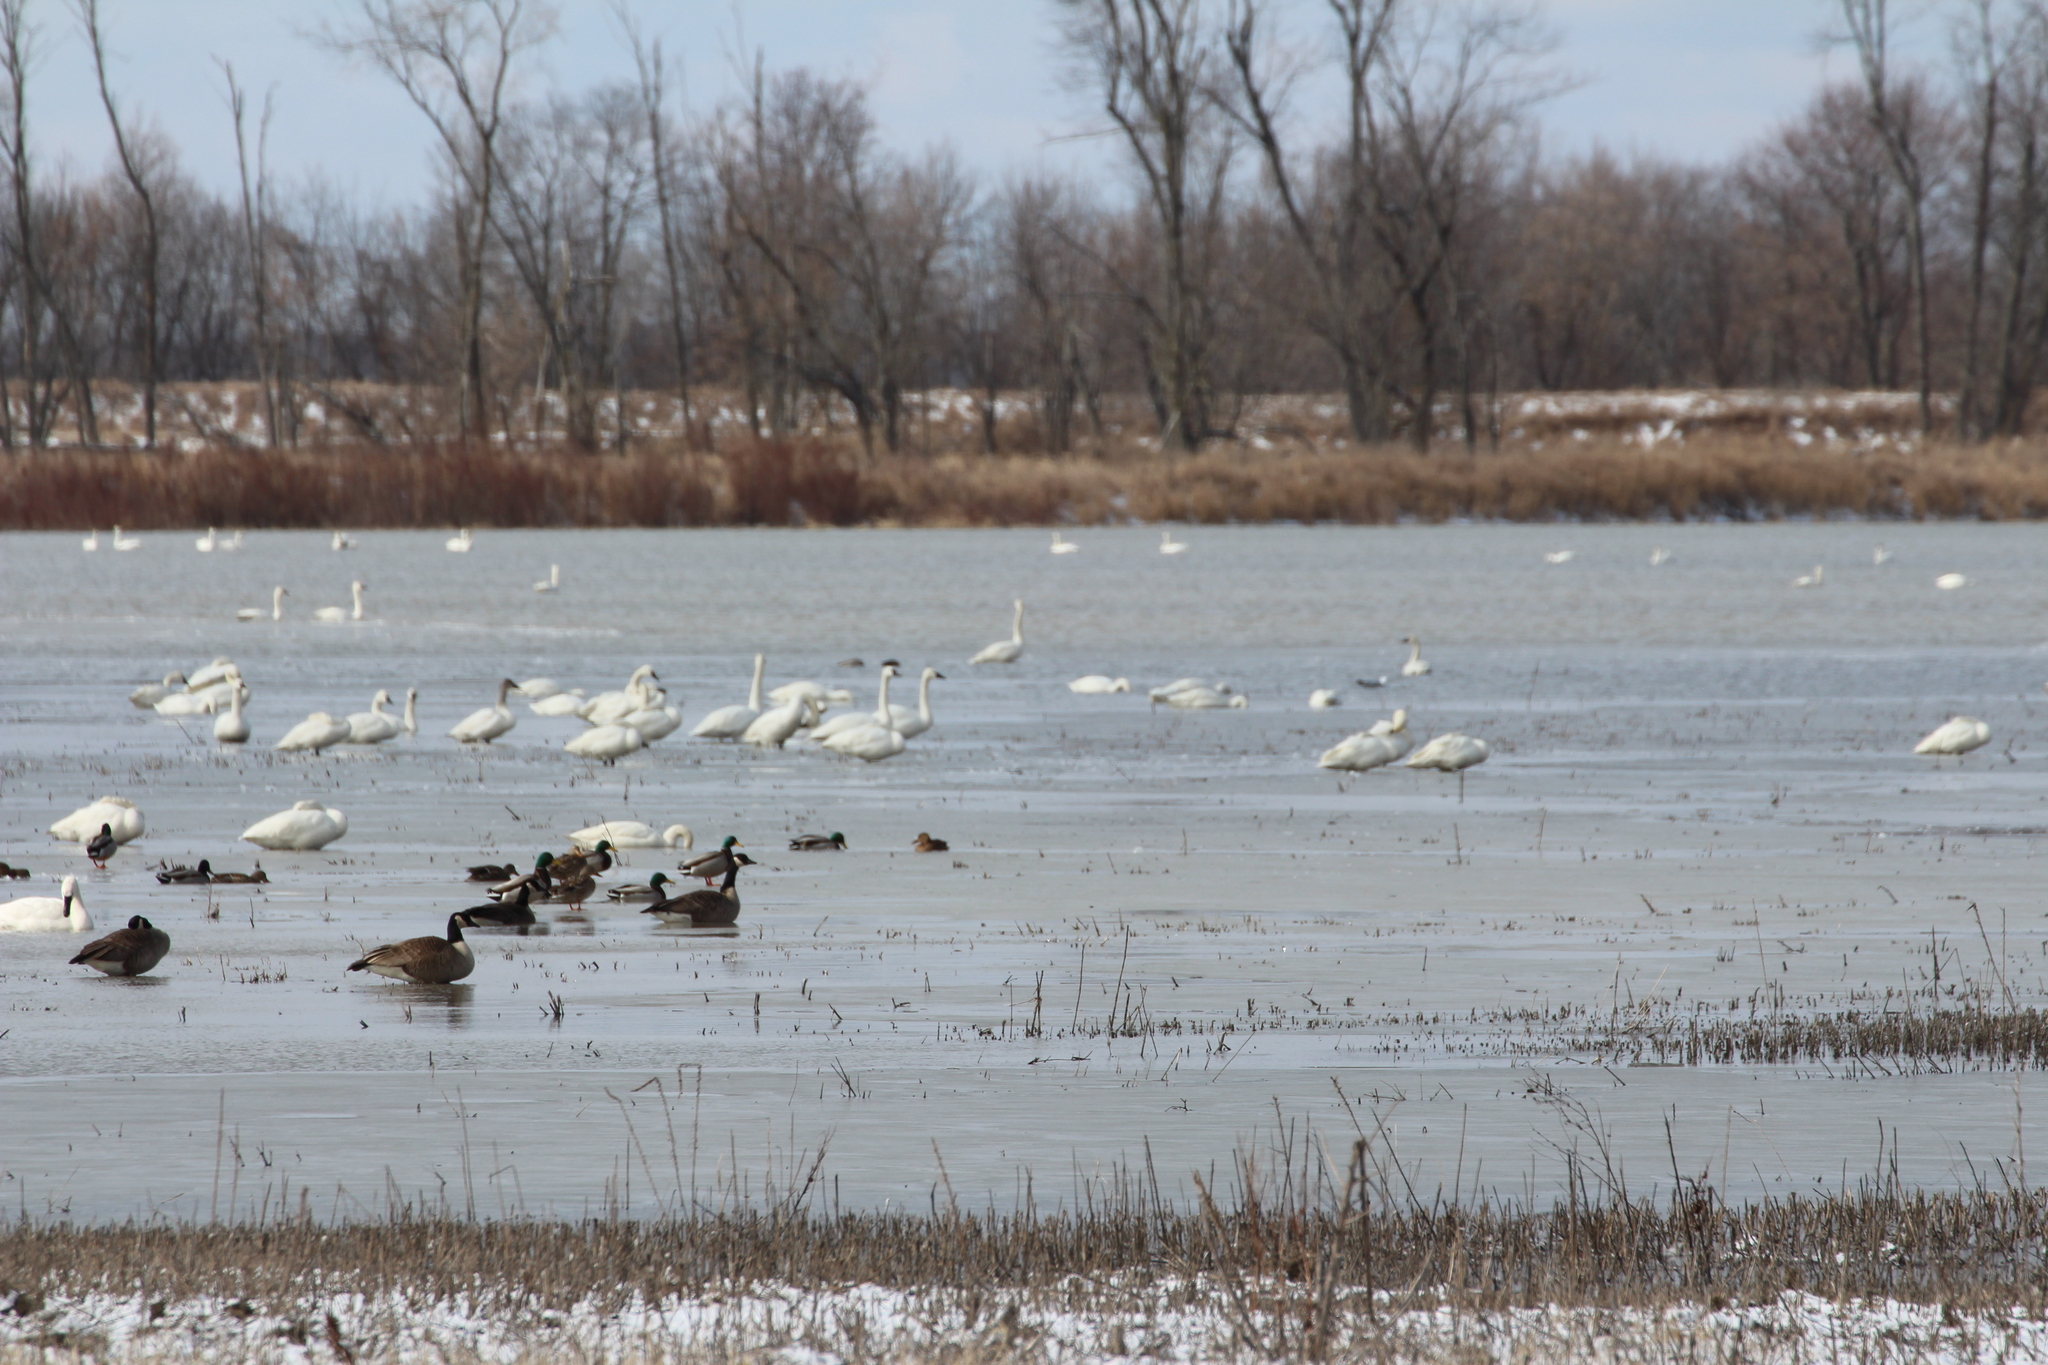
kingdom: Animalia
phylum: Chordata
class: Aves
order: Anseriformes
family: Anatidae
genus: Branta
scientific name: Branta canadensis
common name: Canada goose
